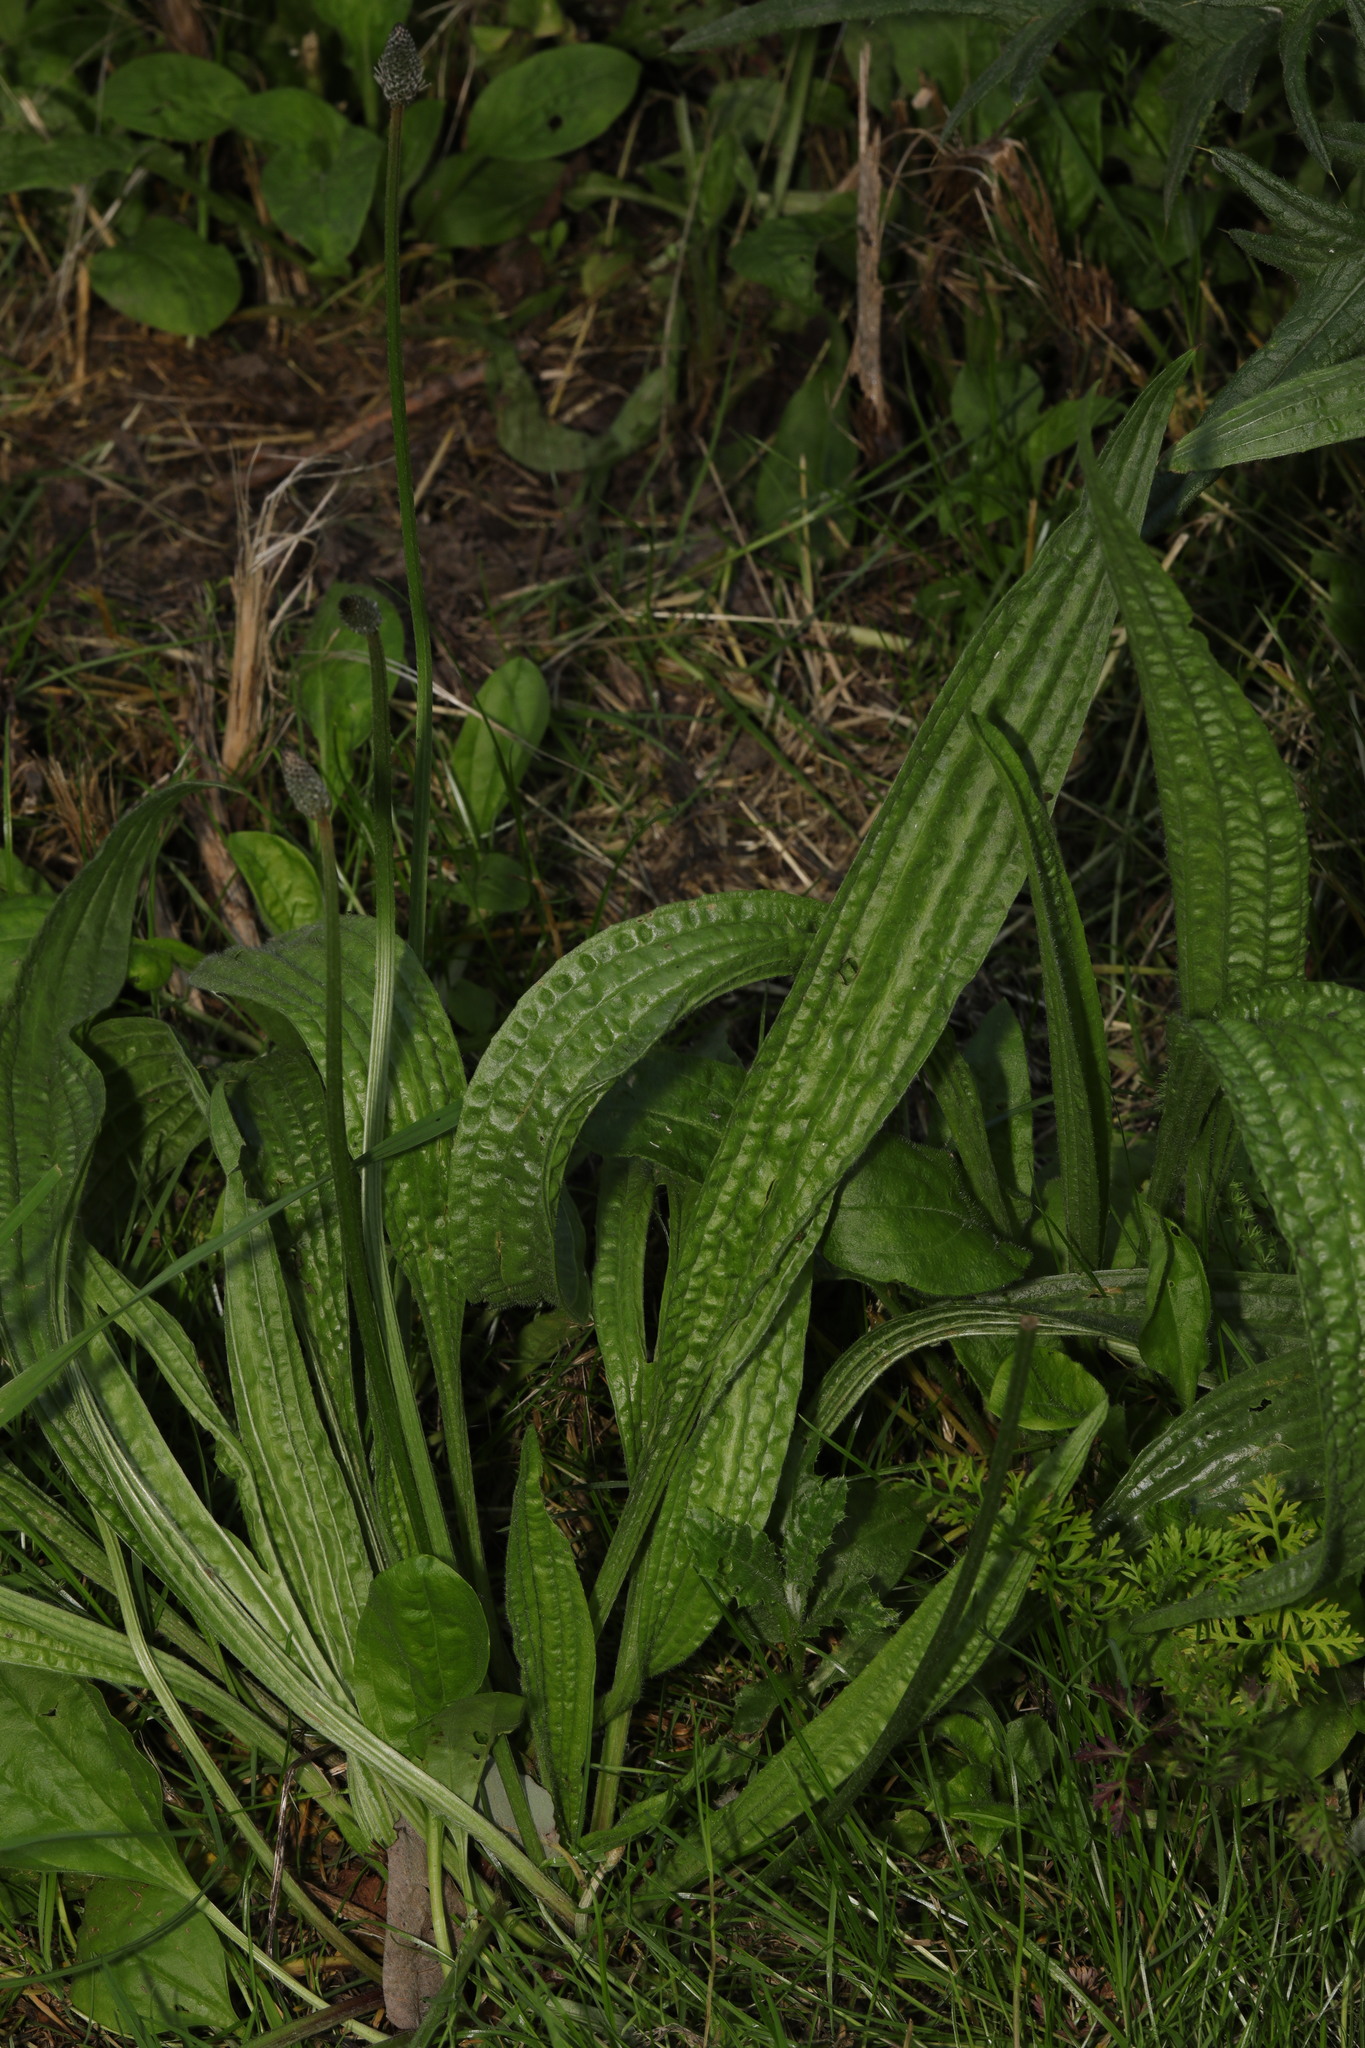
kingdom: Plantae
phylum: Tracheophyta
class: Magnoliopsida
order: Lamiales
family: Plantaginaceae
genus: Plantago
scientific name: Plantago lanceolata
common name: Ribwort plantain
